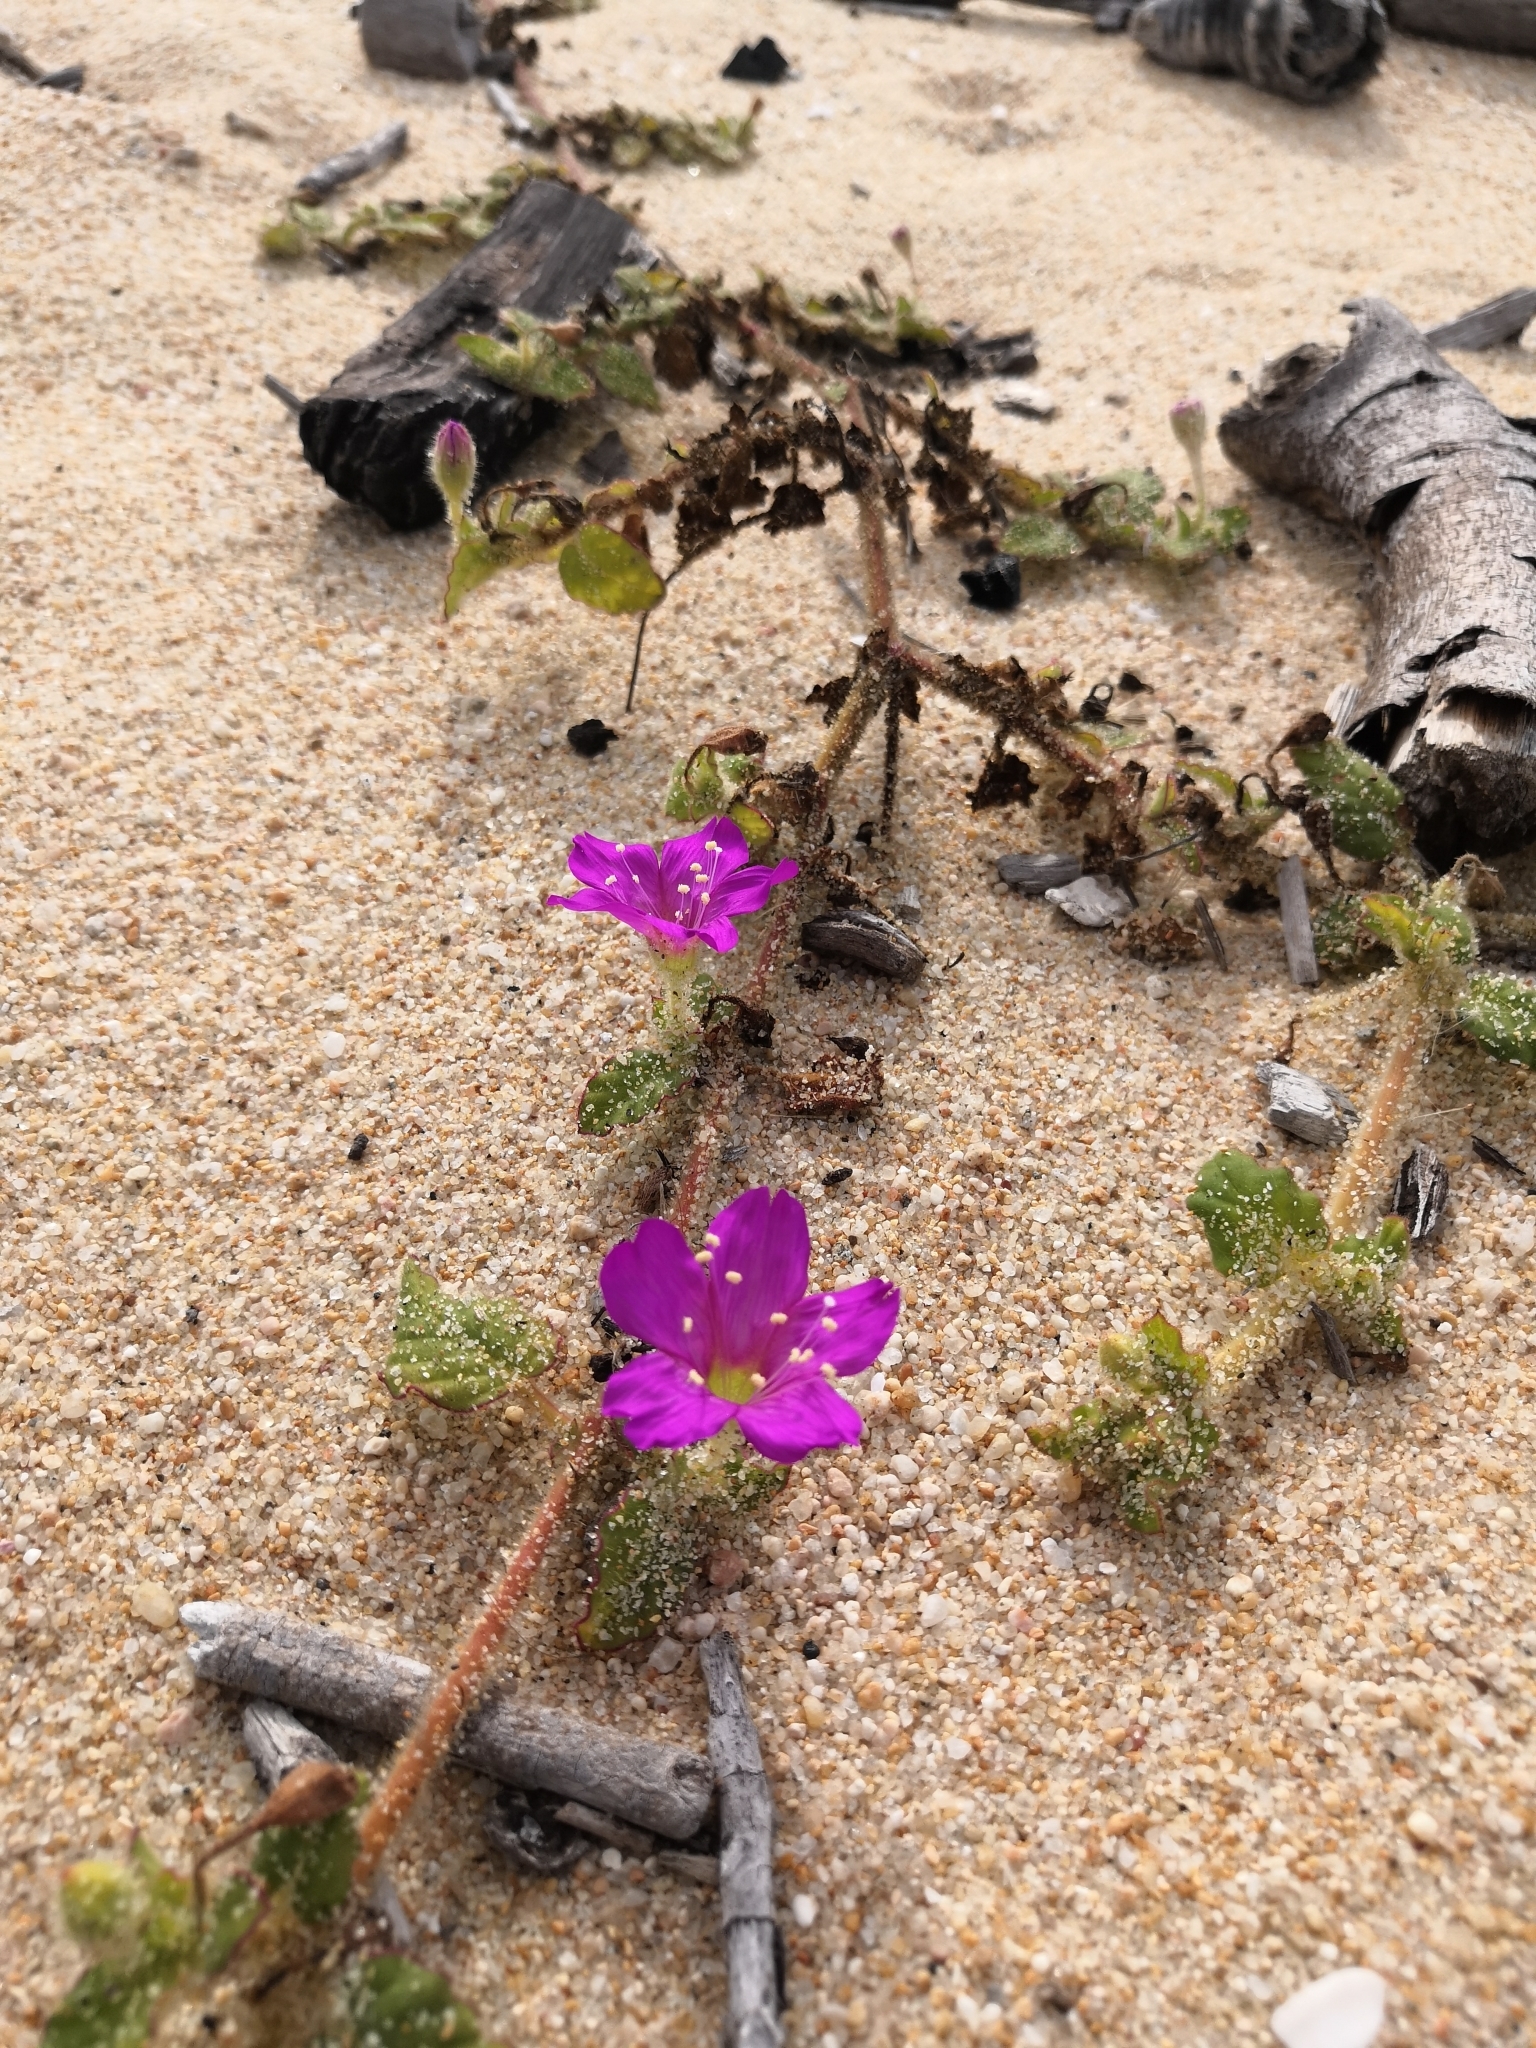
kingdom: Plantae
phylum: Tracheophyta
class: Magnoliopsida
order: Caryophyllales
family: Nyctaginaceae
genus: Okenia
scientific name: Okenia hypogaea
